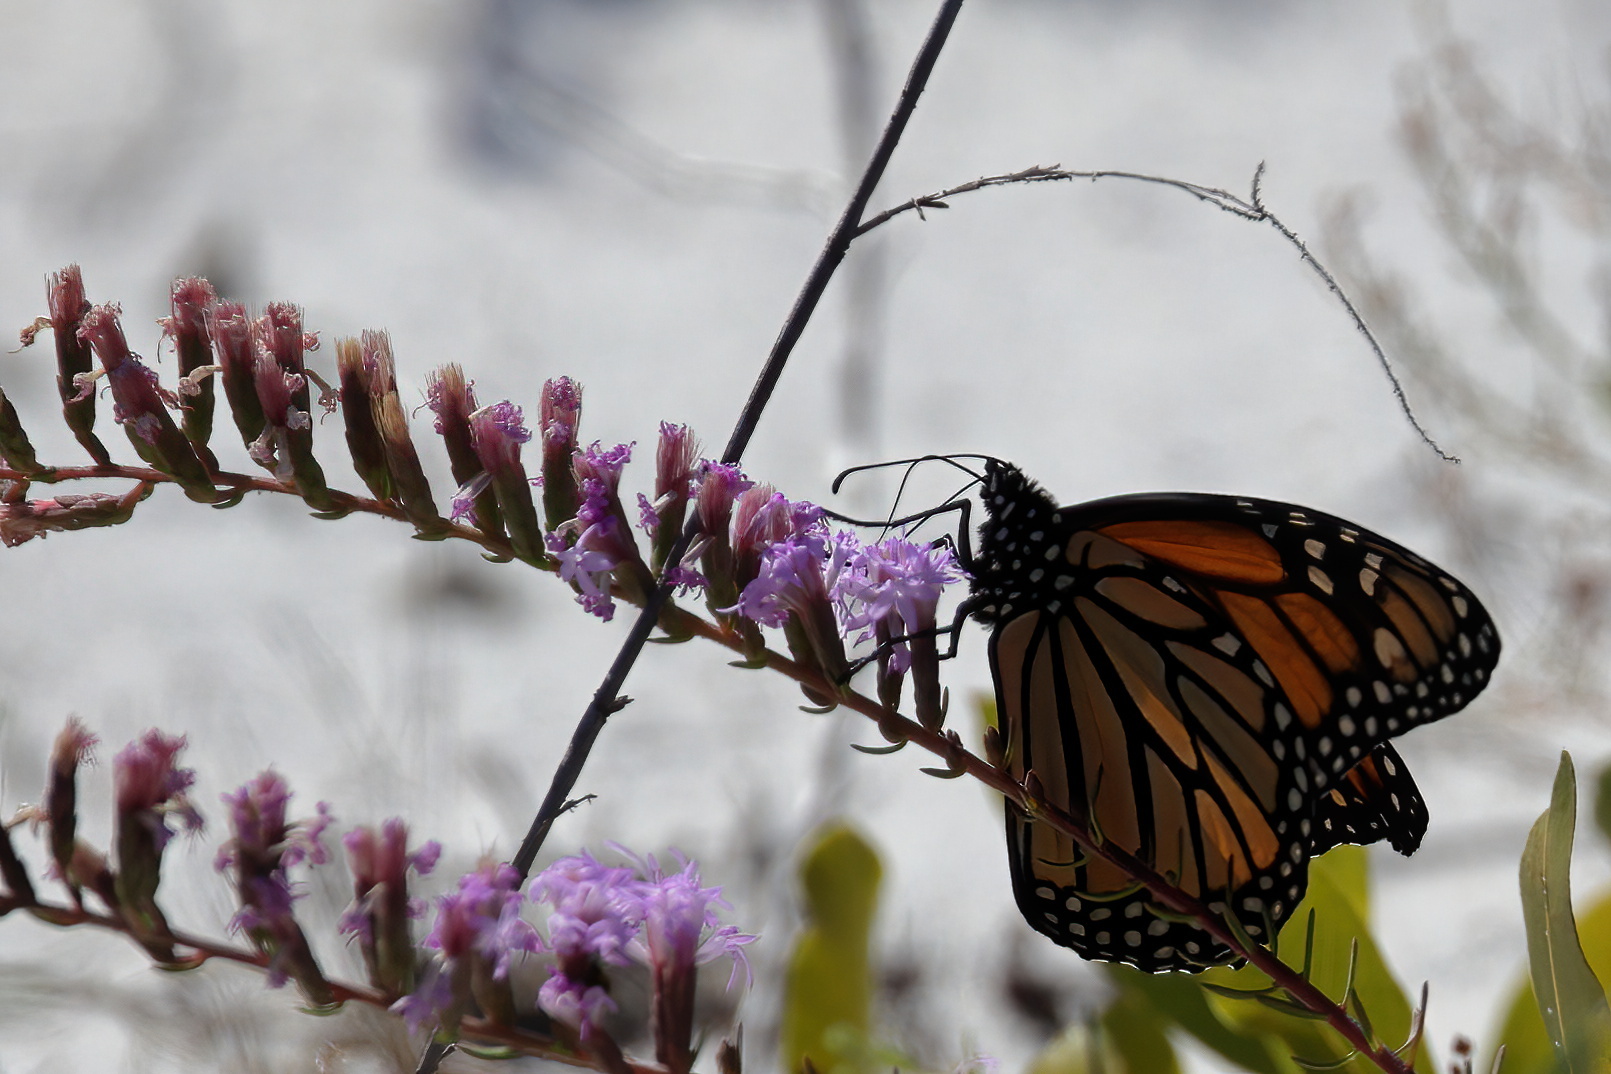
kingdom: Animalia
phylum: Arthropoda
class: Insecta
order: Lepidoptera
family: Nymphalidae
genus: Danaus
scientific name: Danaus plexippus
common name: Monarch
